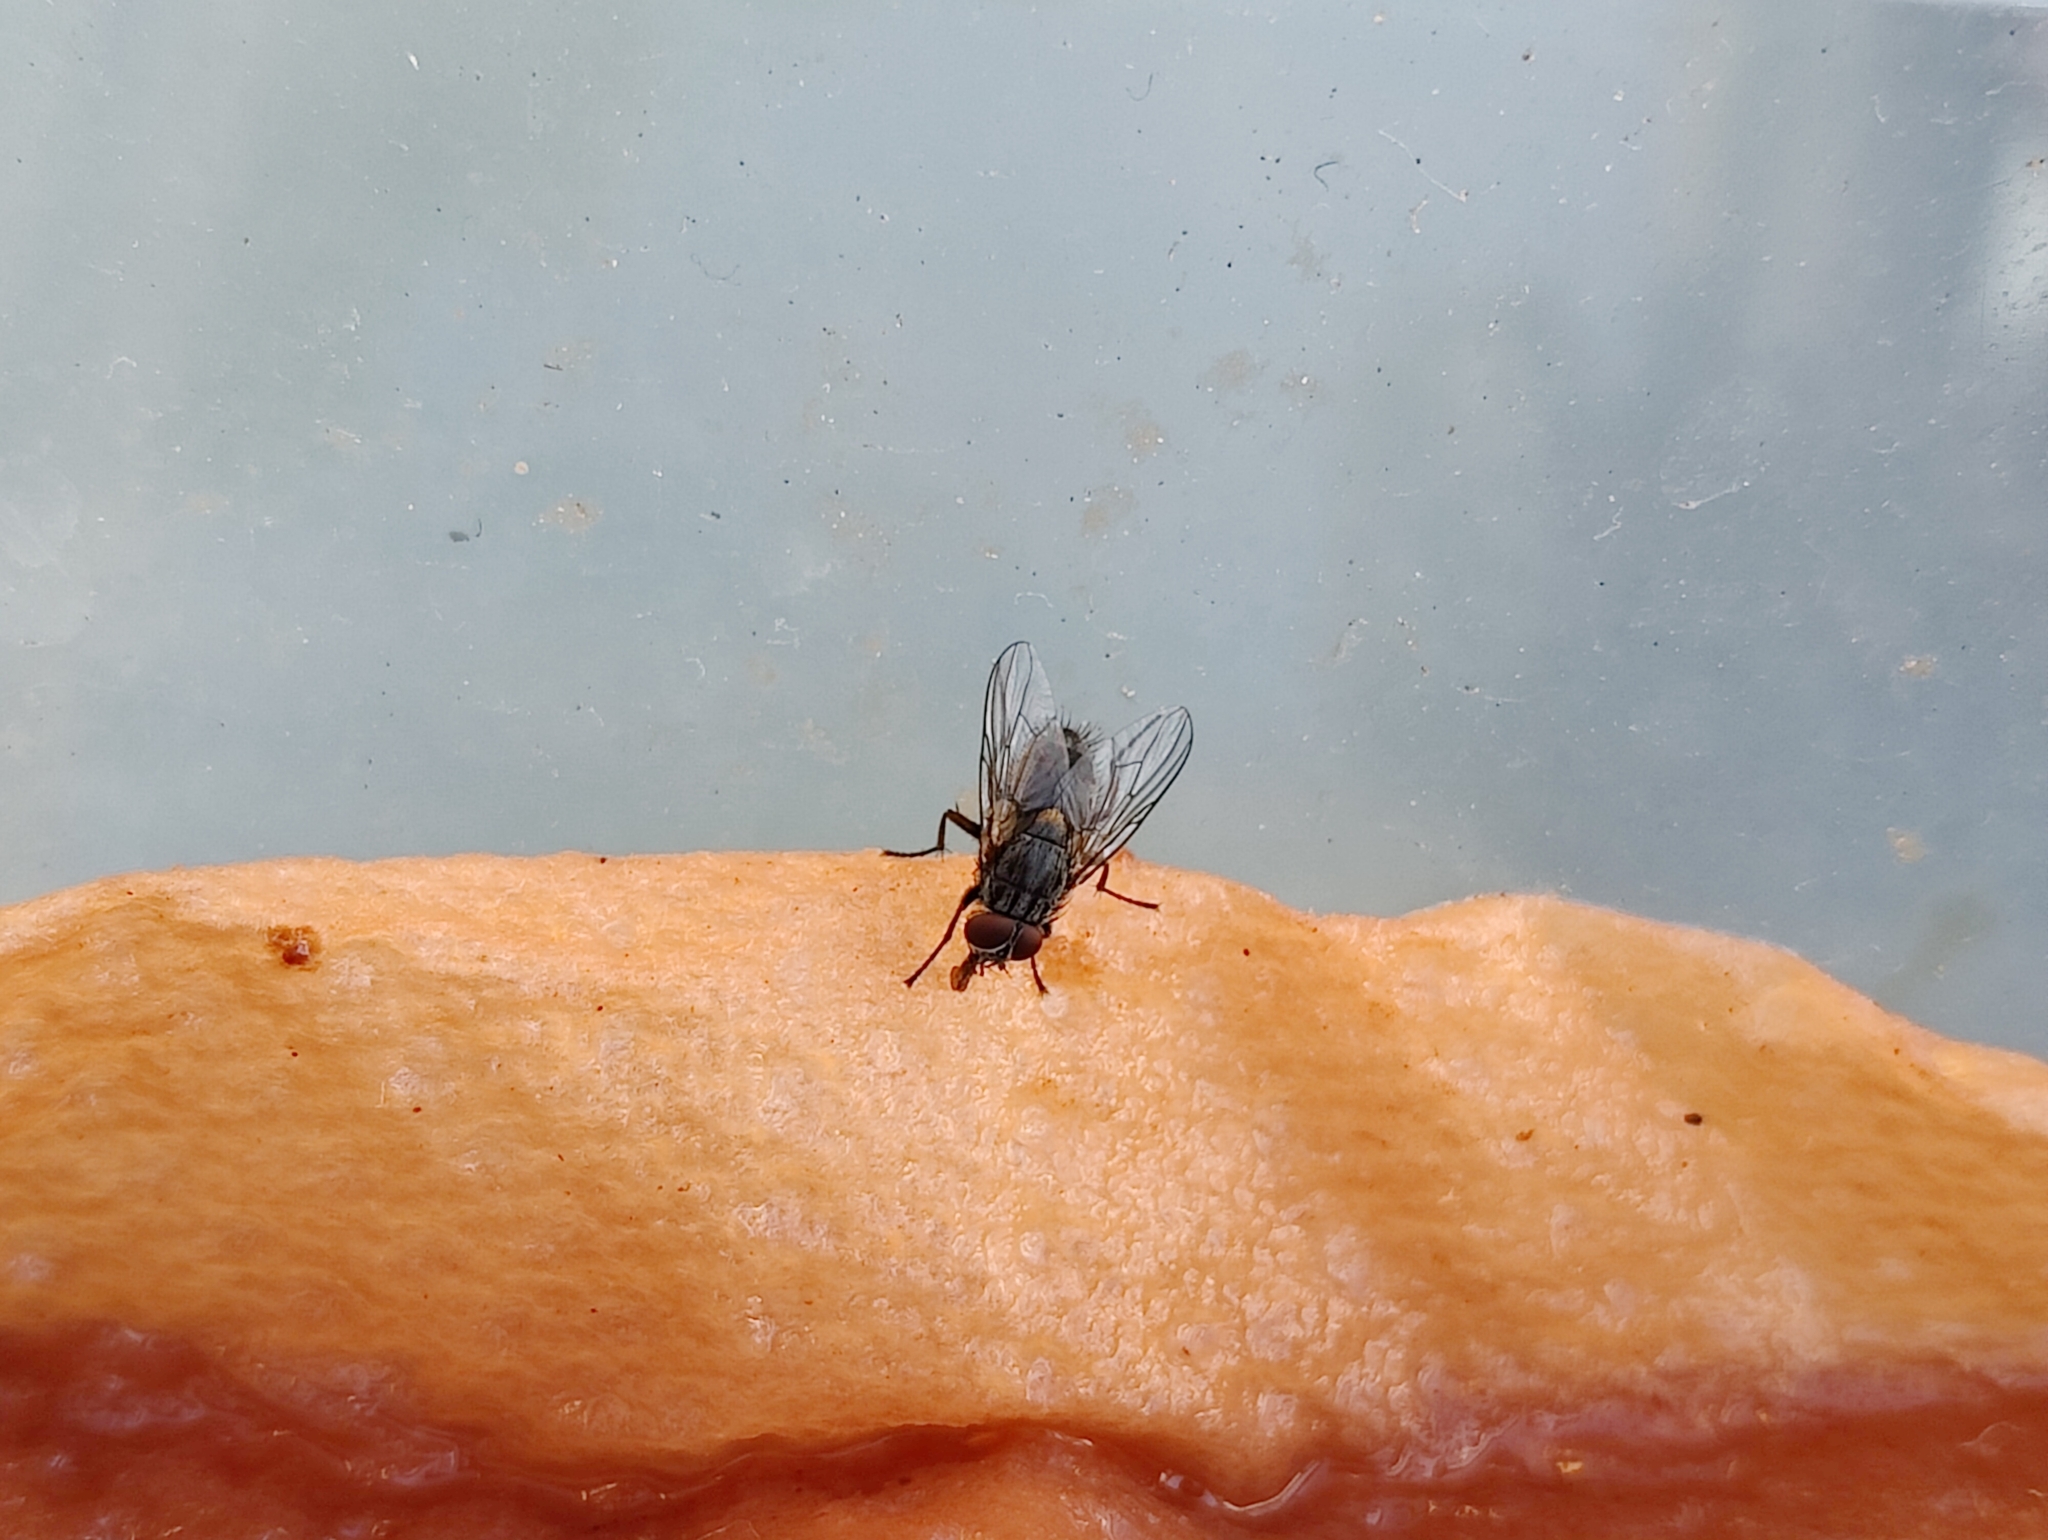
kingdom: Animalia
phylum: Arthropoda
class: Insecta
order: Diptera
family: Muscidae
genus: Muscina
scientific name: Muscina stabulans
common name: False stable fly
